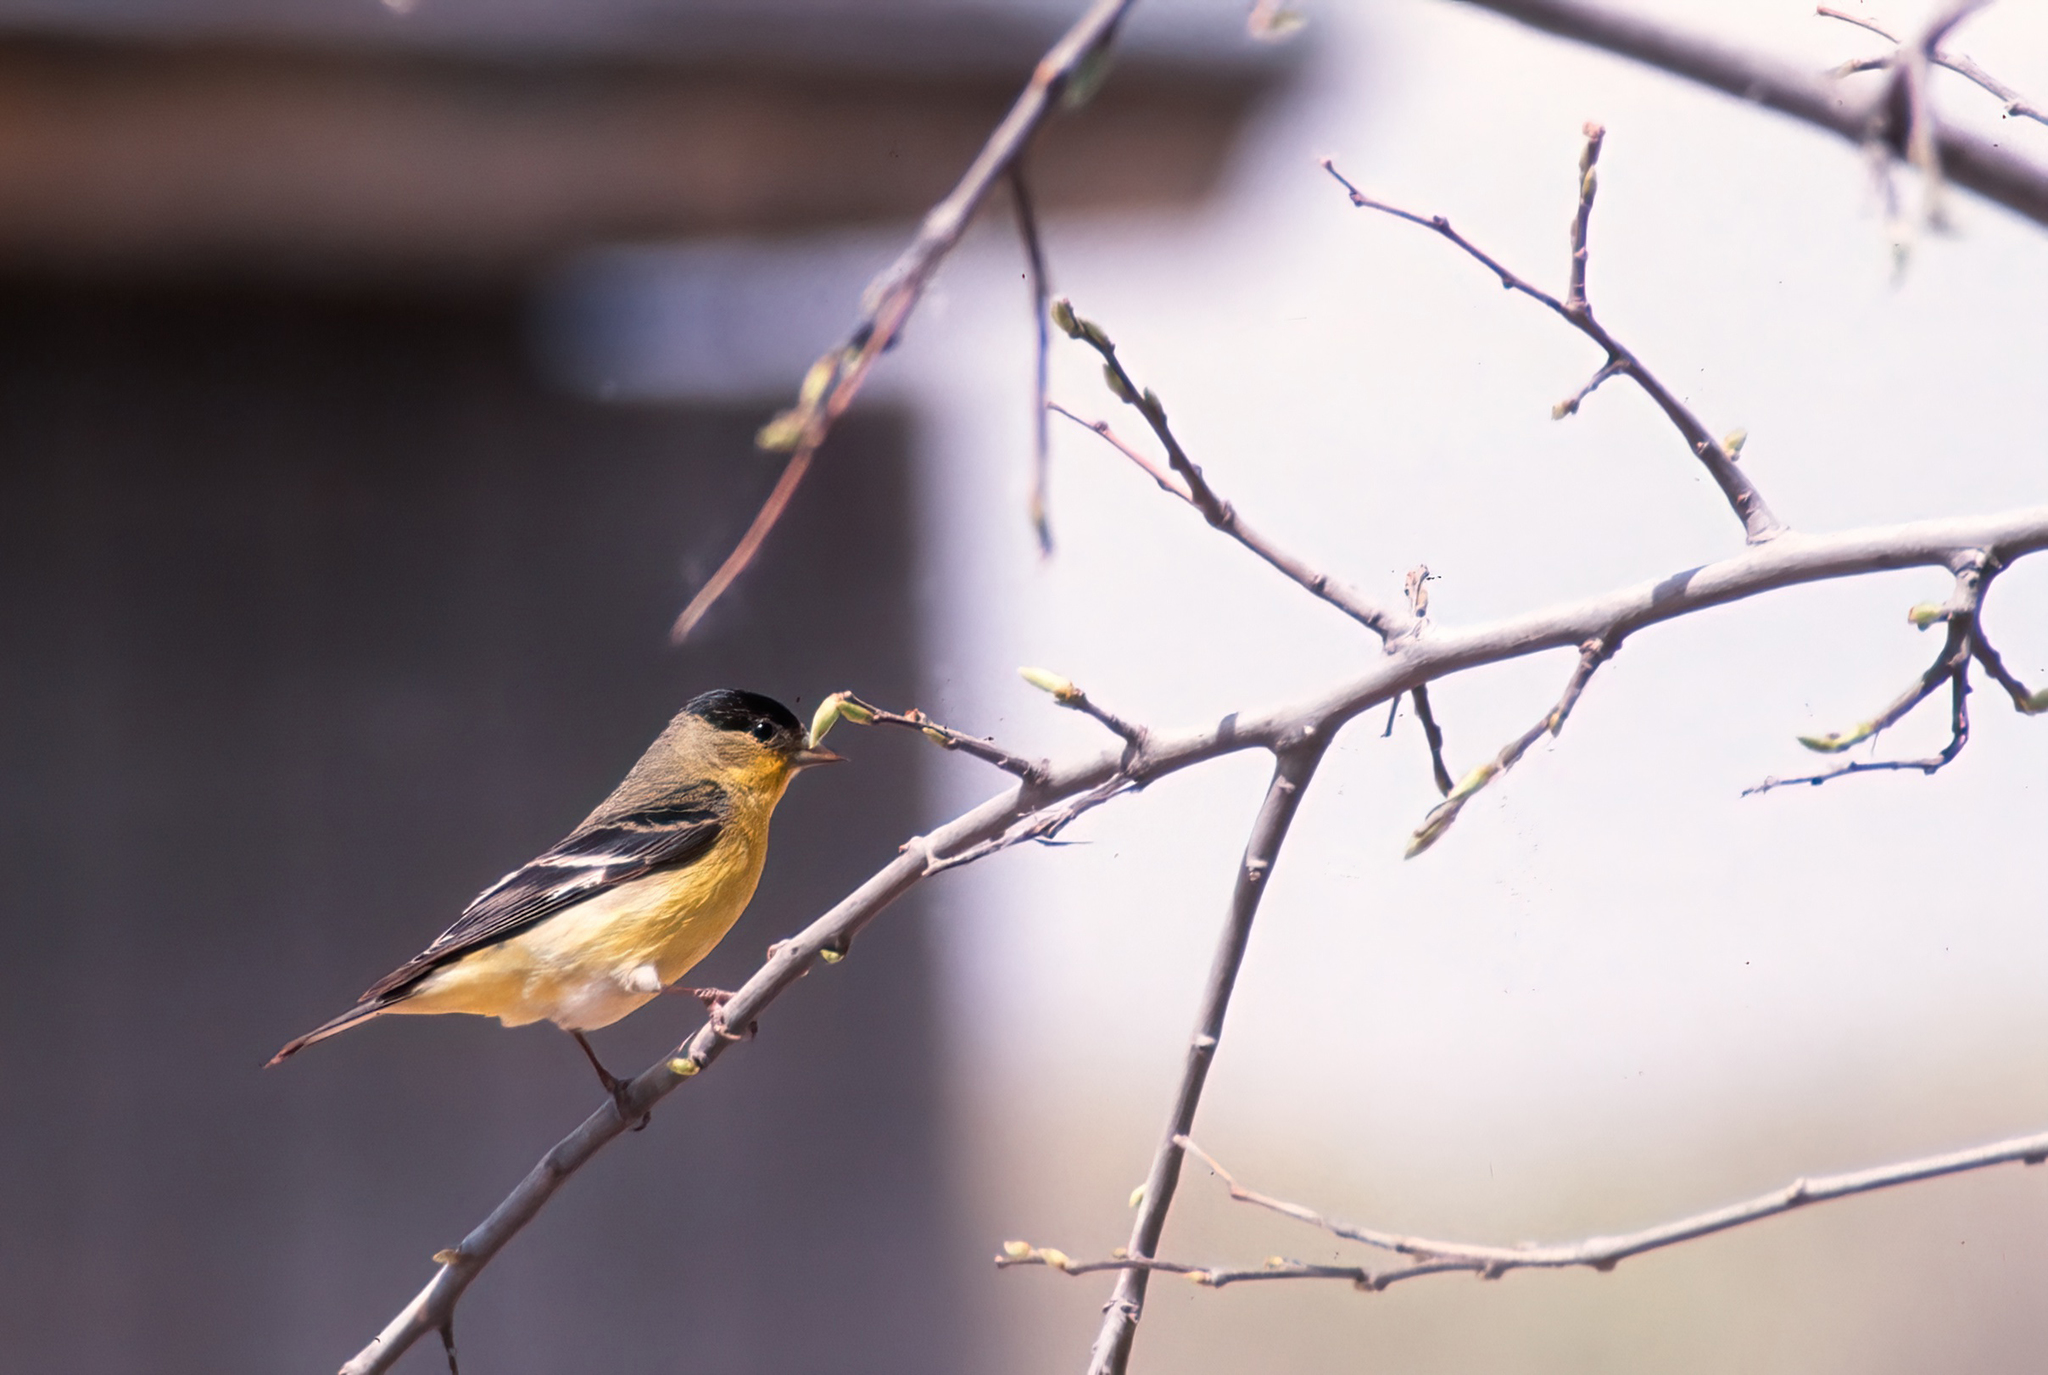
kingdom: Animalia
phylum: Chordata
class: Aves
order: Passeriformes
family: Fringillidae
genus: Spinus
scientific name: Spinus psaltria
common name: Lesser goldfinch
